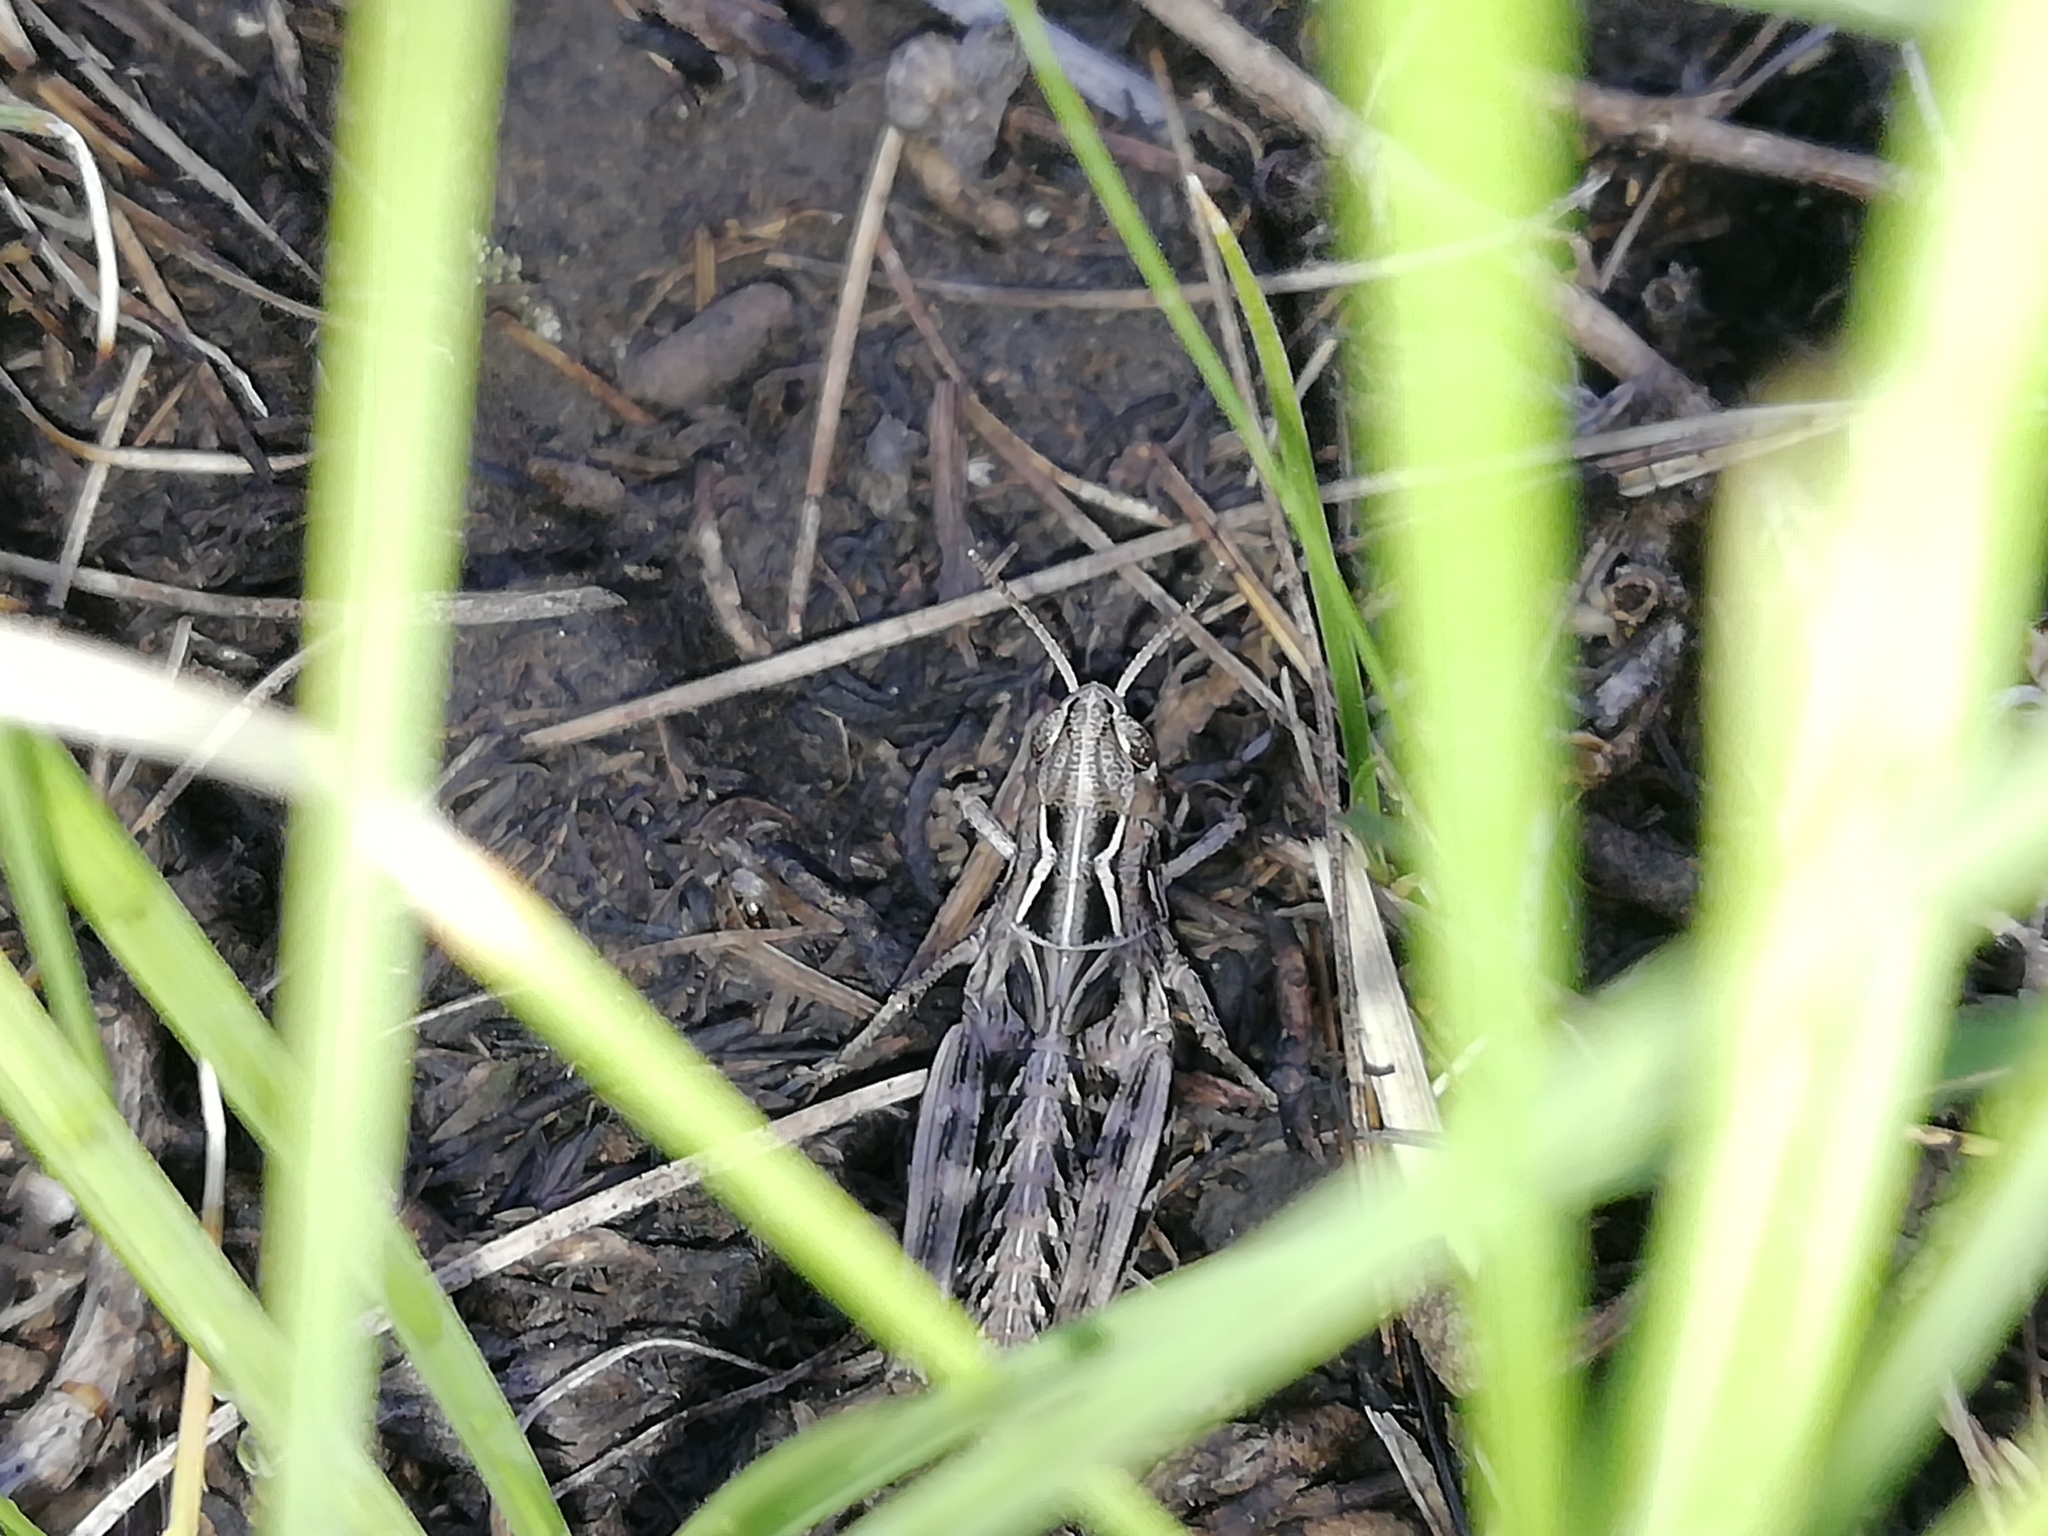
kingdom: Animalia
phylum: Arthropoda
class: Insecta
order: Orthoptera
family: Acrididae
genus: Arcyptera
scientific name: Arcyptera microptera
